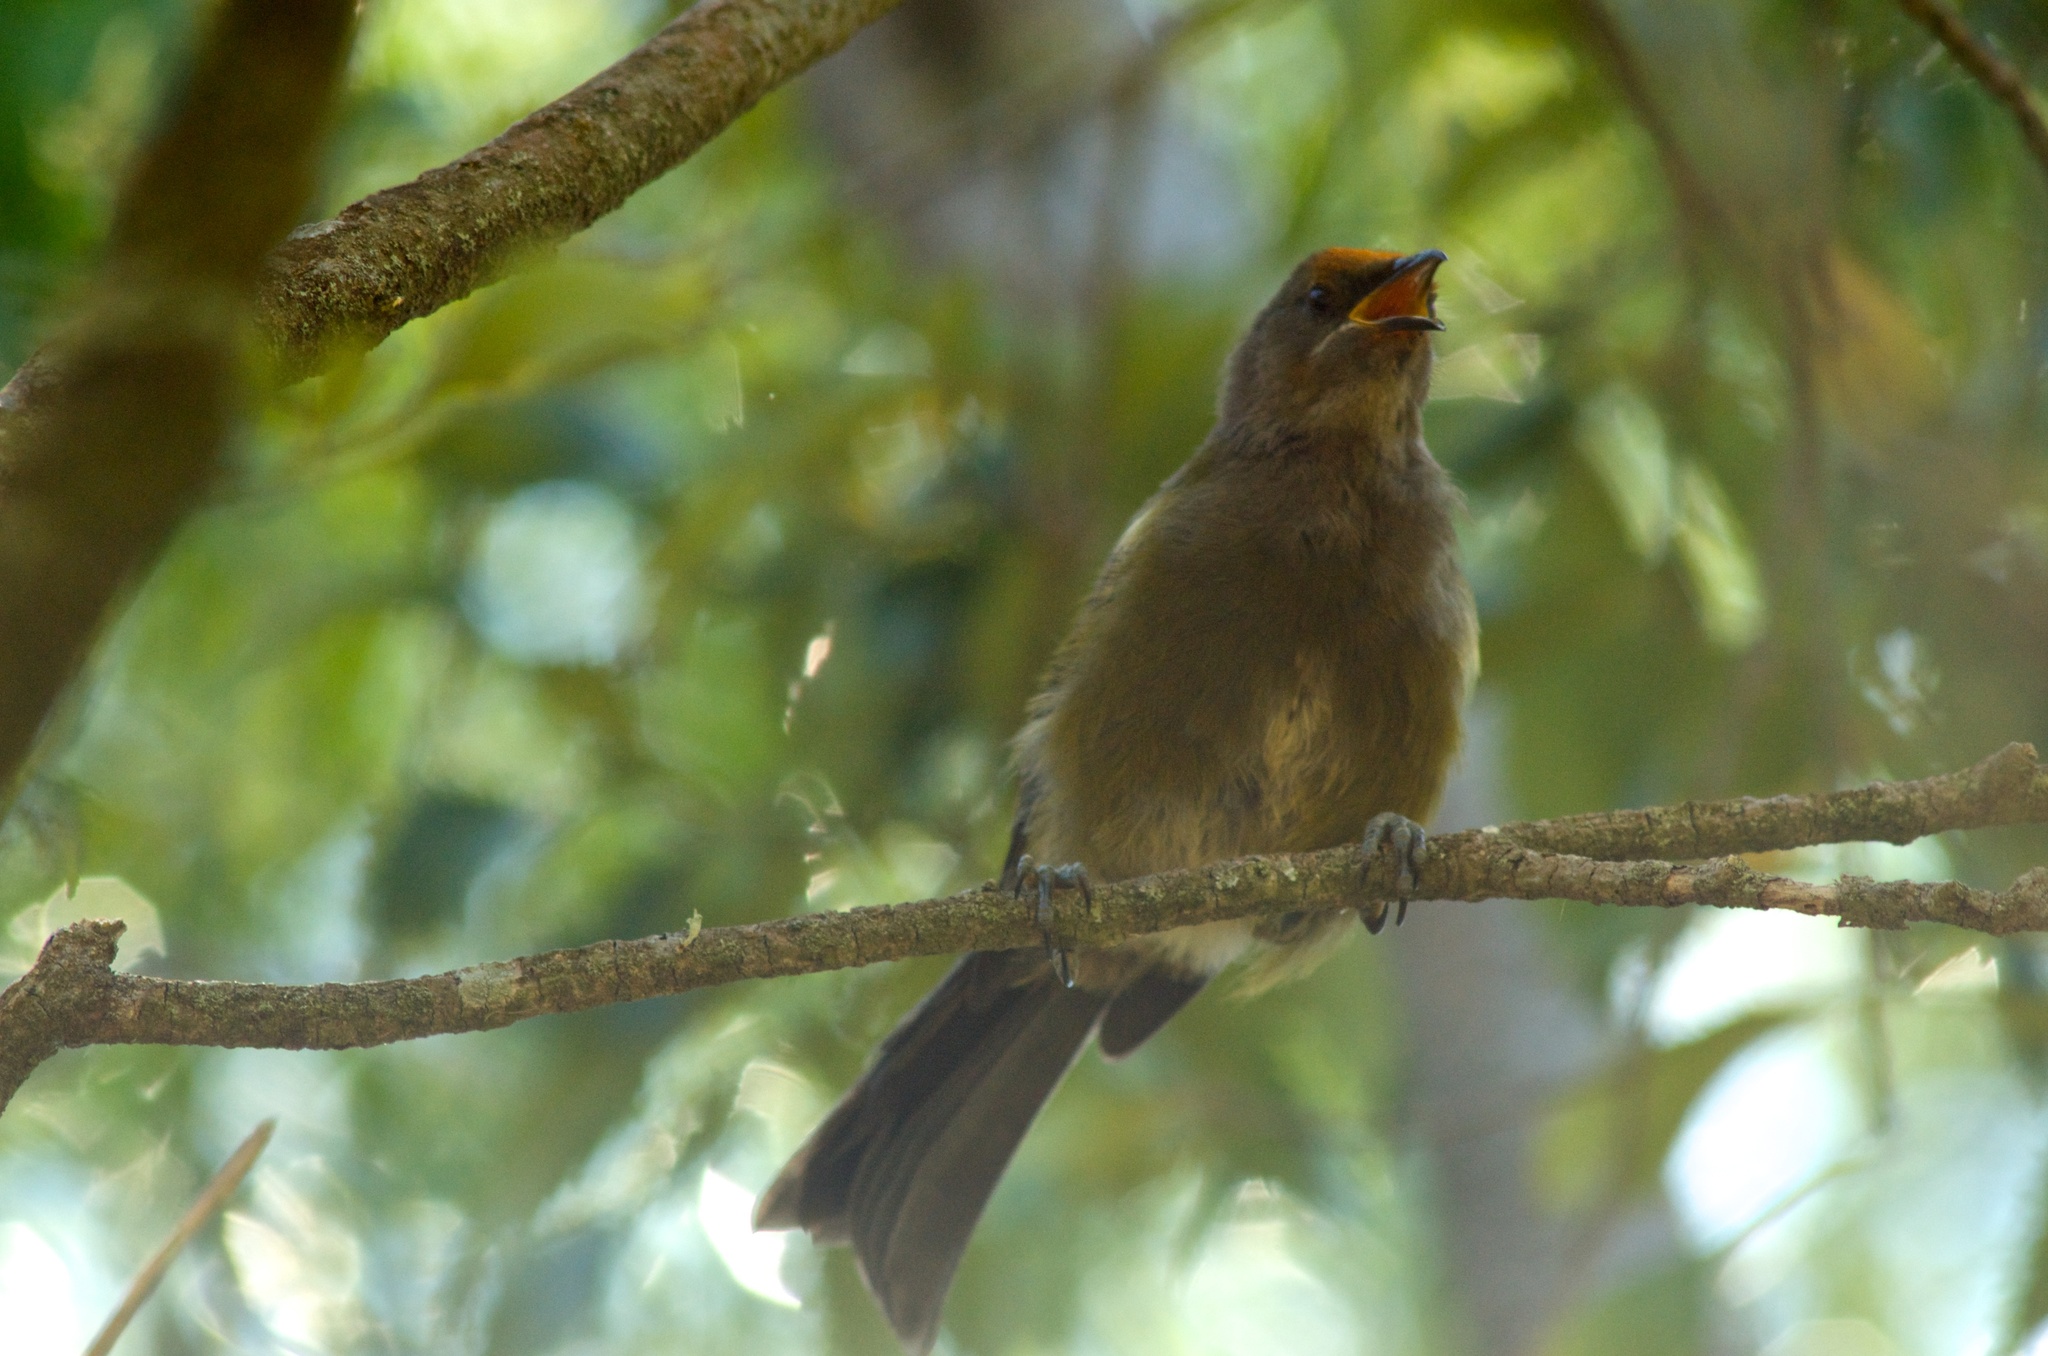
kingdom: Animalia
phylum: Chordata
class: Aves
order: Passeriformes
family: Meliphagidae
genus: Anthornis
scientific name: Anthornis melanura
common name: New zealand bellbird
